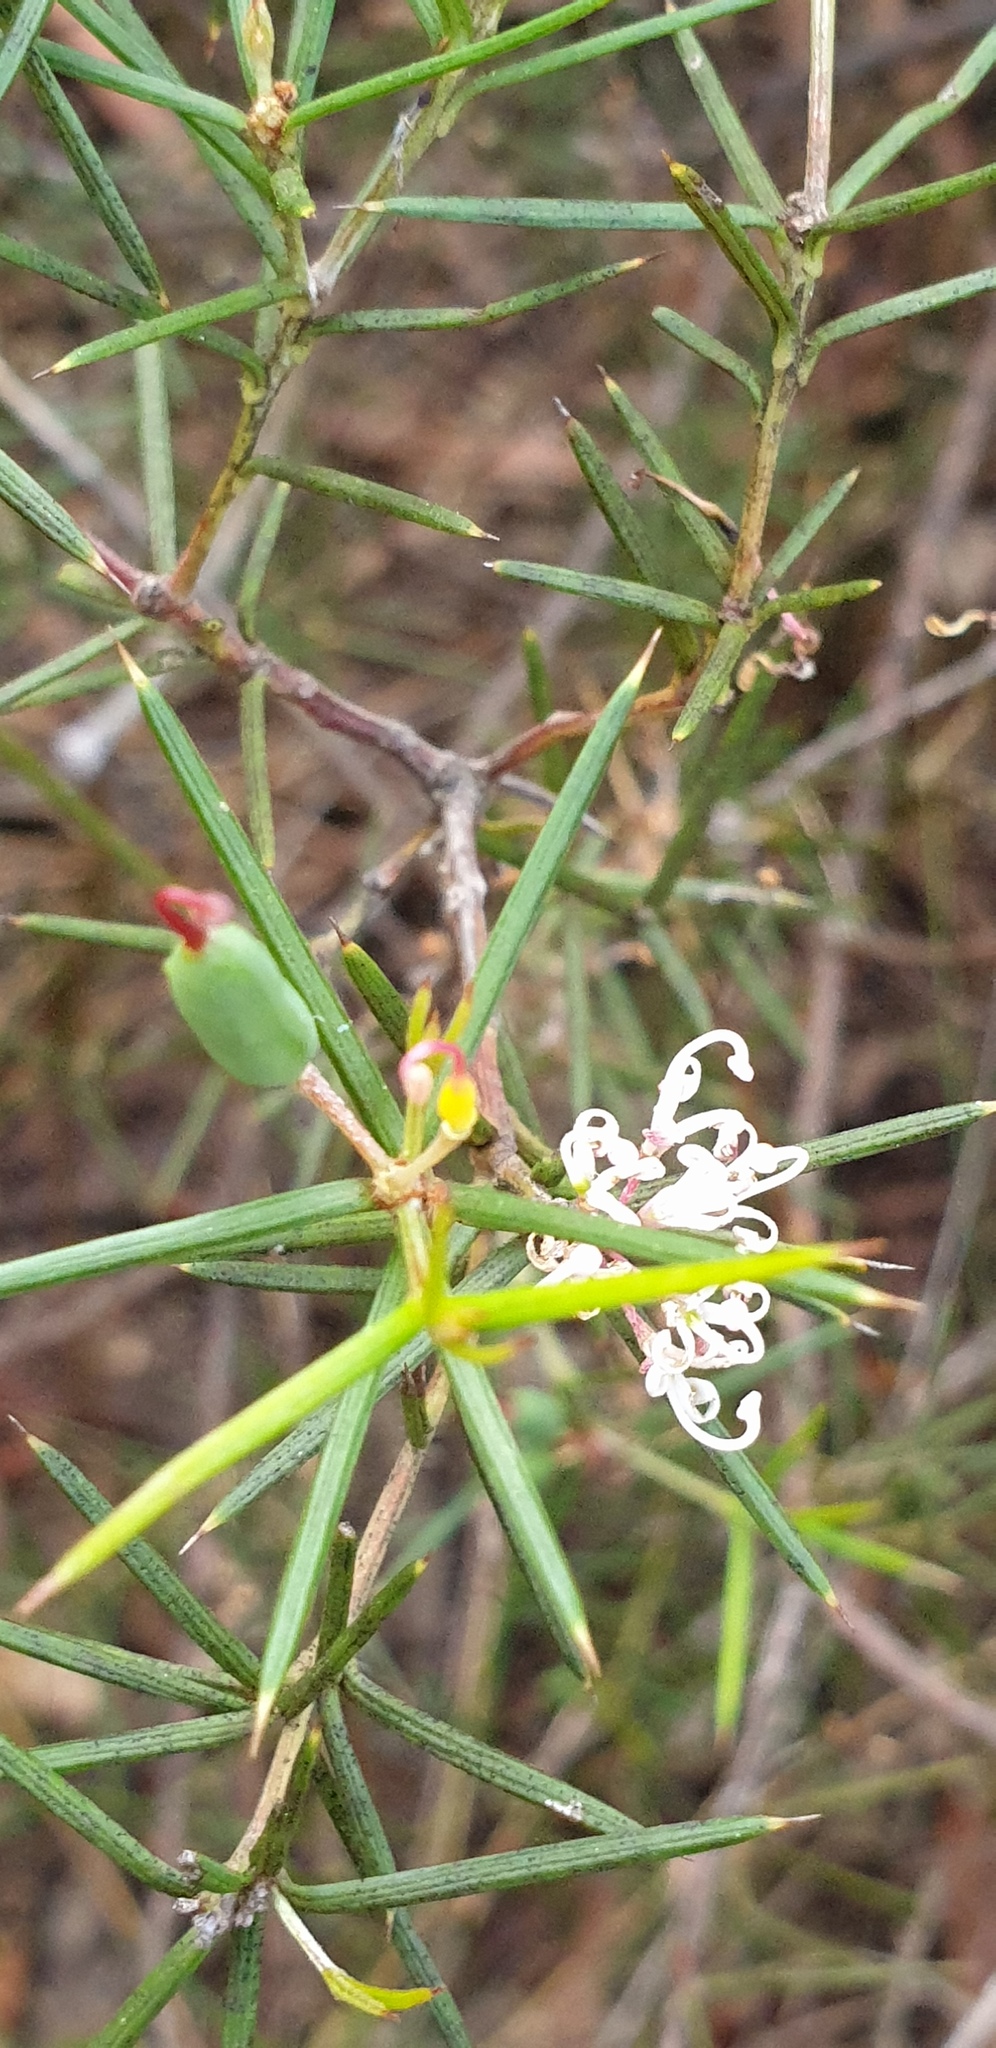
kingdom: Plantae
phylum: Tracheophyta
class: Magnoliopsida
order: Proteales
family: Proteaceae
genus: Hakea
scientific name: Hakea rostrata
